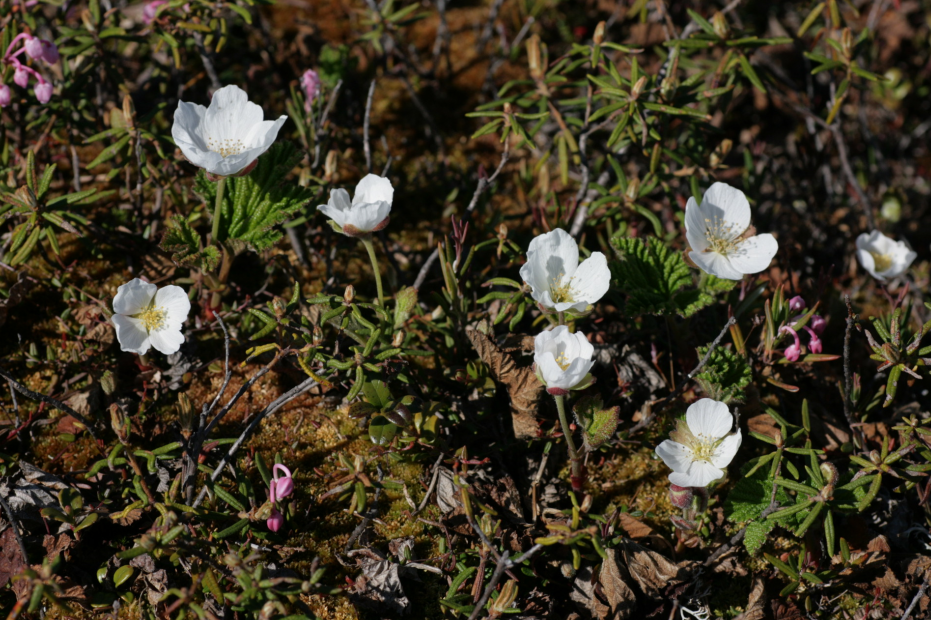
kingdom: Plantae
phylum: Tracheophyta
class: Magnoliopsida
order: Rosales
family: Rosaceae
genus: Rubus
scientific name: Rubus chamaemorus
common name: Cloudberry
